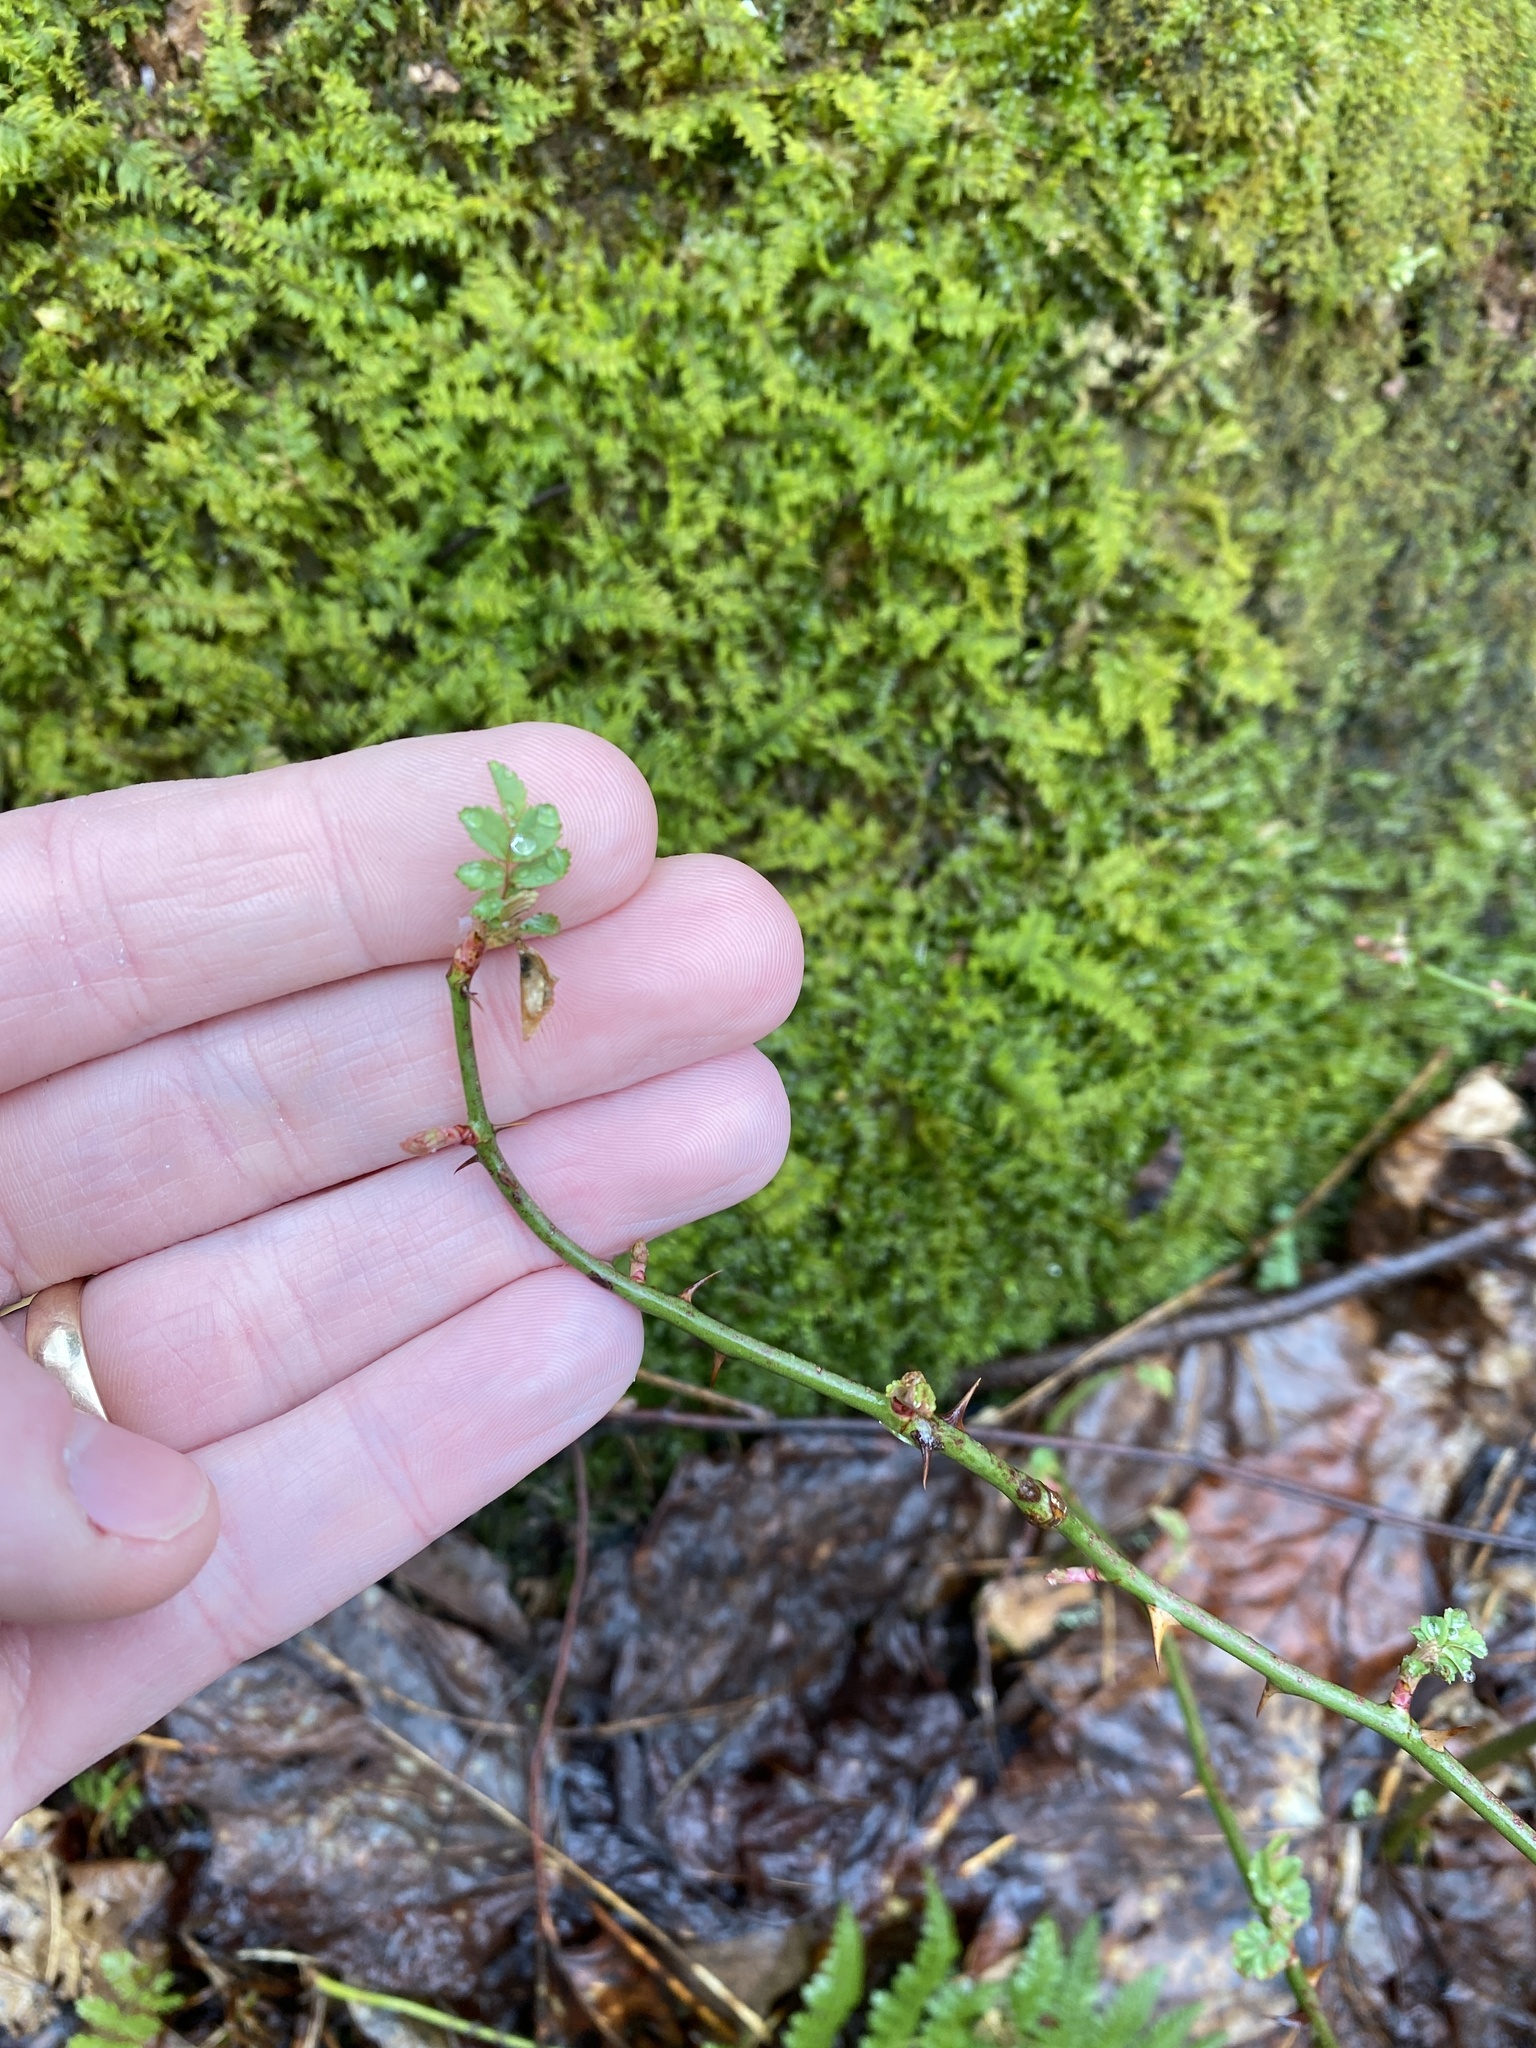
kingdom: Plantae
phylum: Tracheophyta
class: Magnoliopsida
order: Rosales
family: Rosaceae
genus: Rosa
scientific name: Rosa multiflora
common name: Multiflora rose
